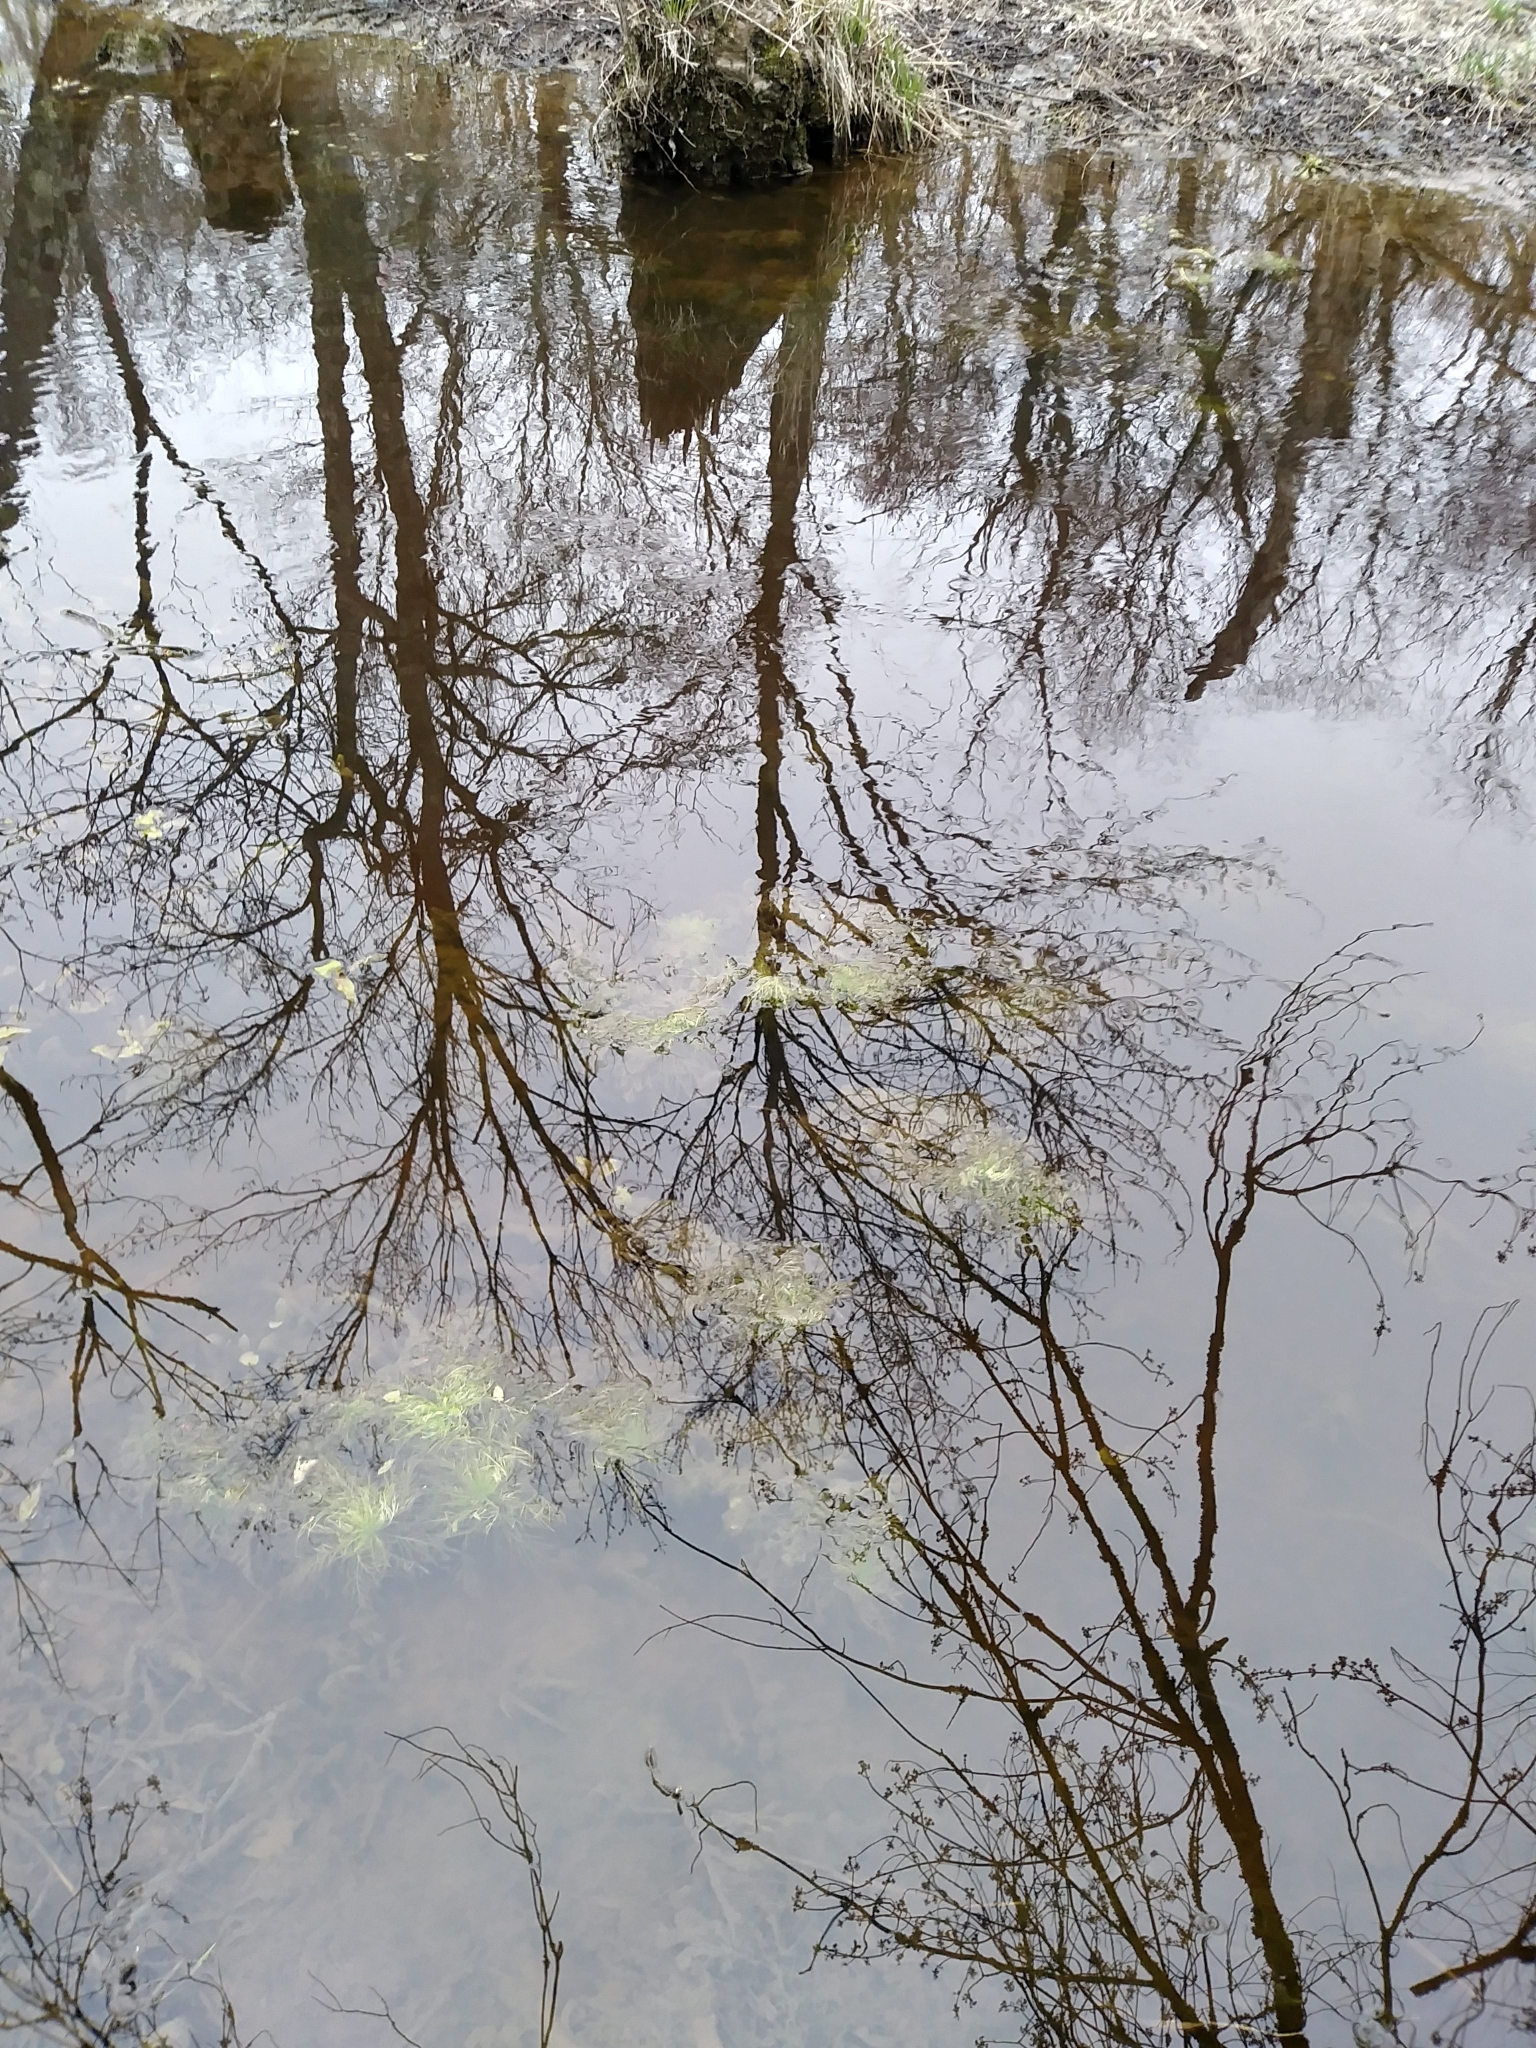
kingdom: Plantae
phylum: Tracheophyta
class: Magnoliopsida
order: Ericales
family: Primulaceae
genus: Hottonia
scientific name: Hottonia inflata
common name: American featherfoil
